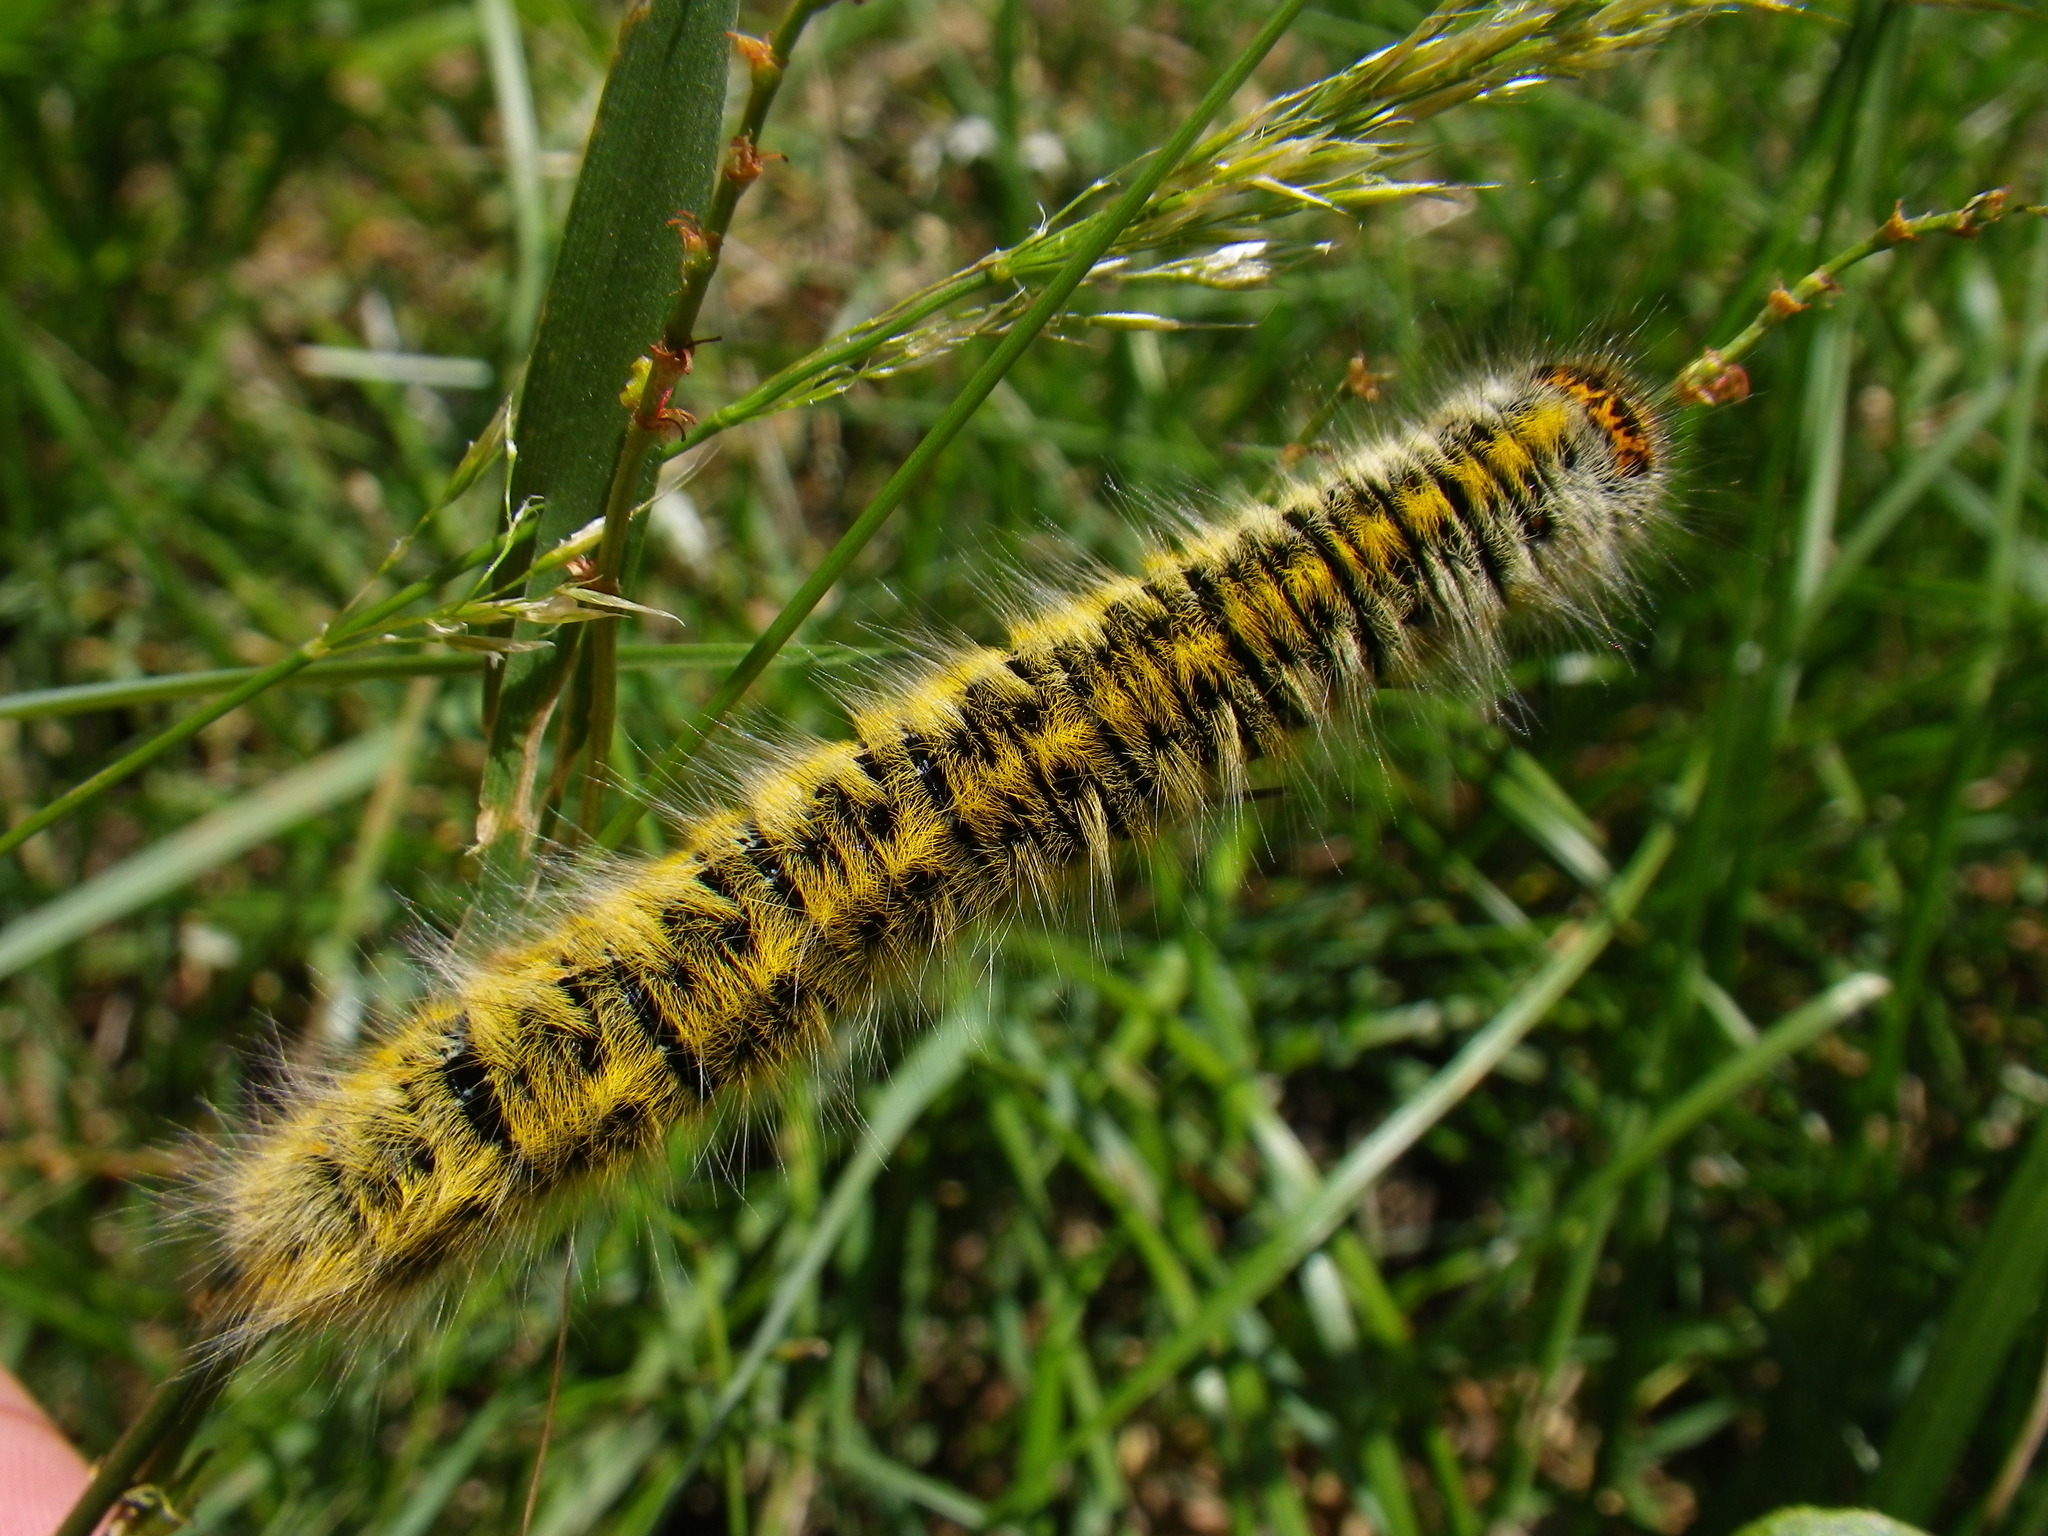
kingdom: Animalia
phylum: Arthropoda
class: Insecta
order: Lepidoptera
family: Lasiocampidae
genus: Lasiocampa
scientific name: Lasiocampa trifolii
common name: Grass eggar
